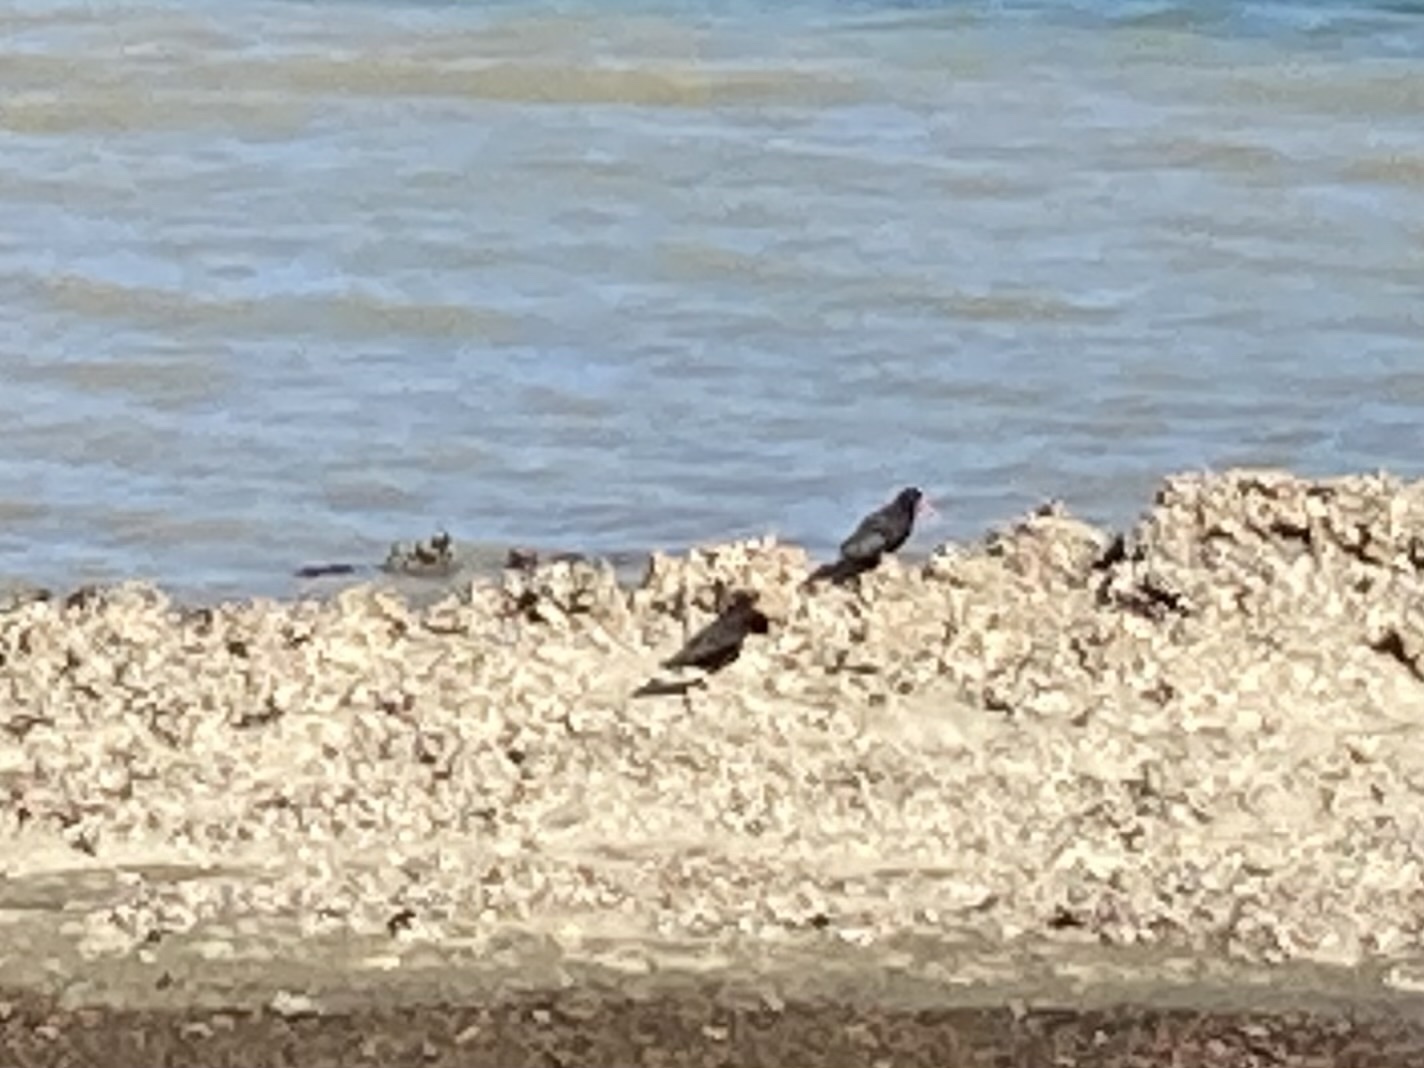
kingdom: Animalia
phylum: Chordata
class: Aves
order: Charadriiformes
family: Haematopodidae
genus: Haematopus
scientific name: Haematopus unicolor
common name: Variable oystercatcher
